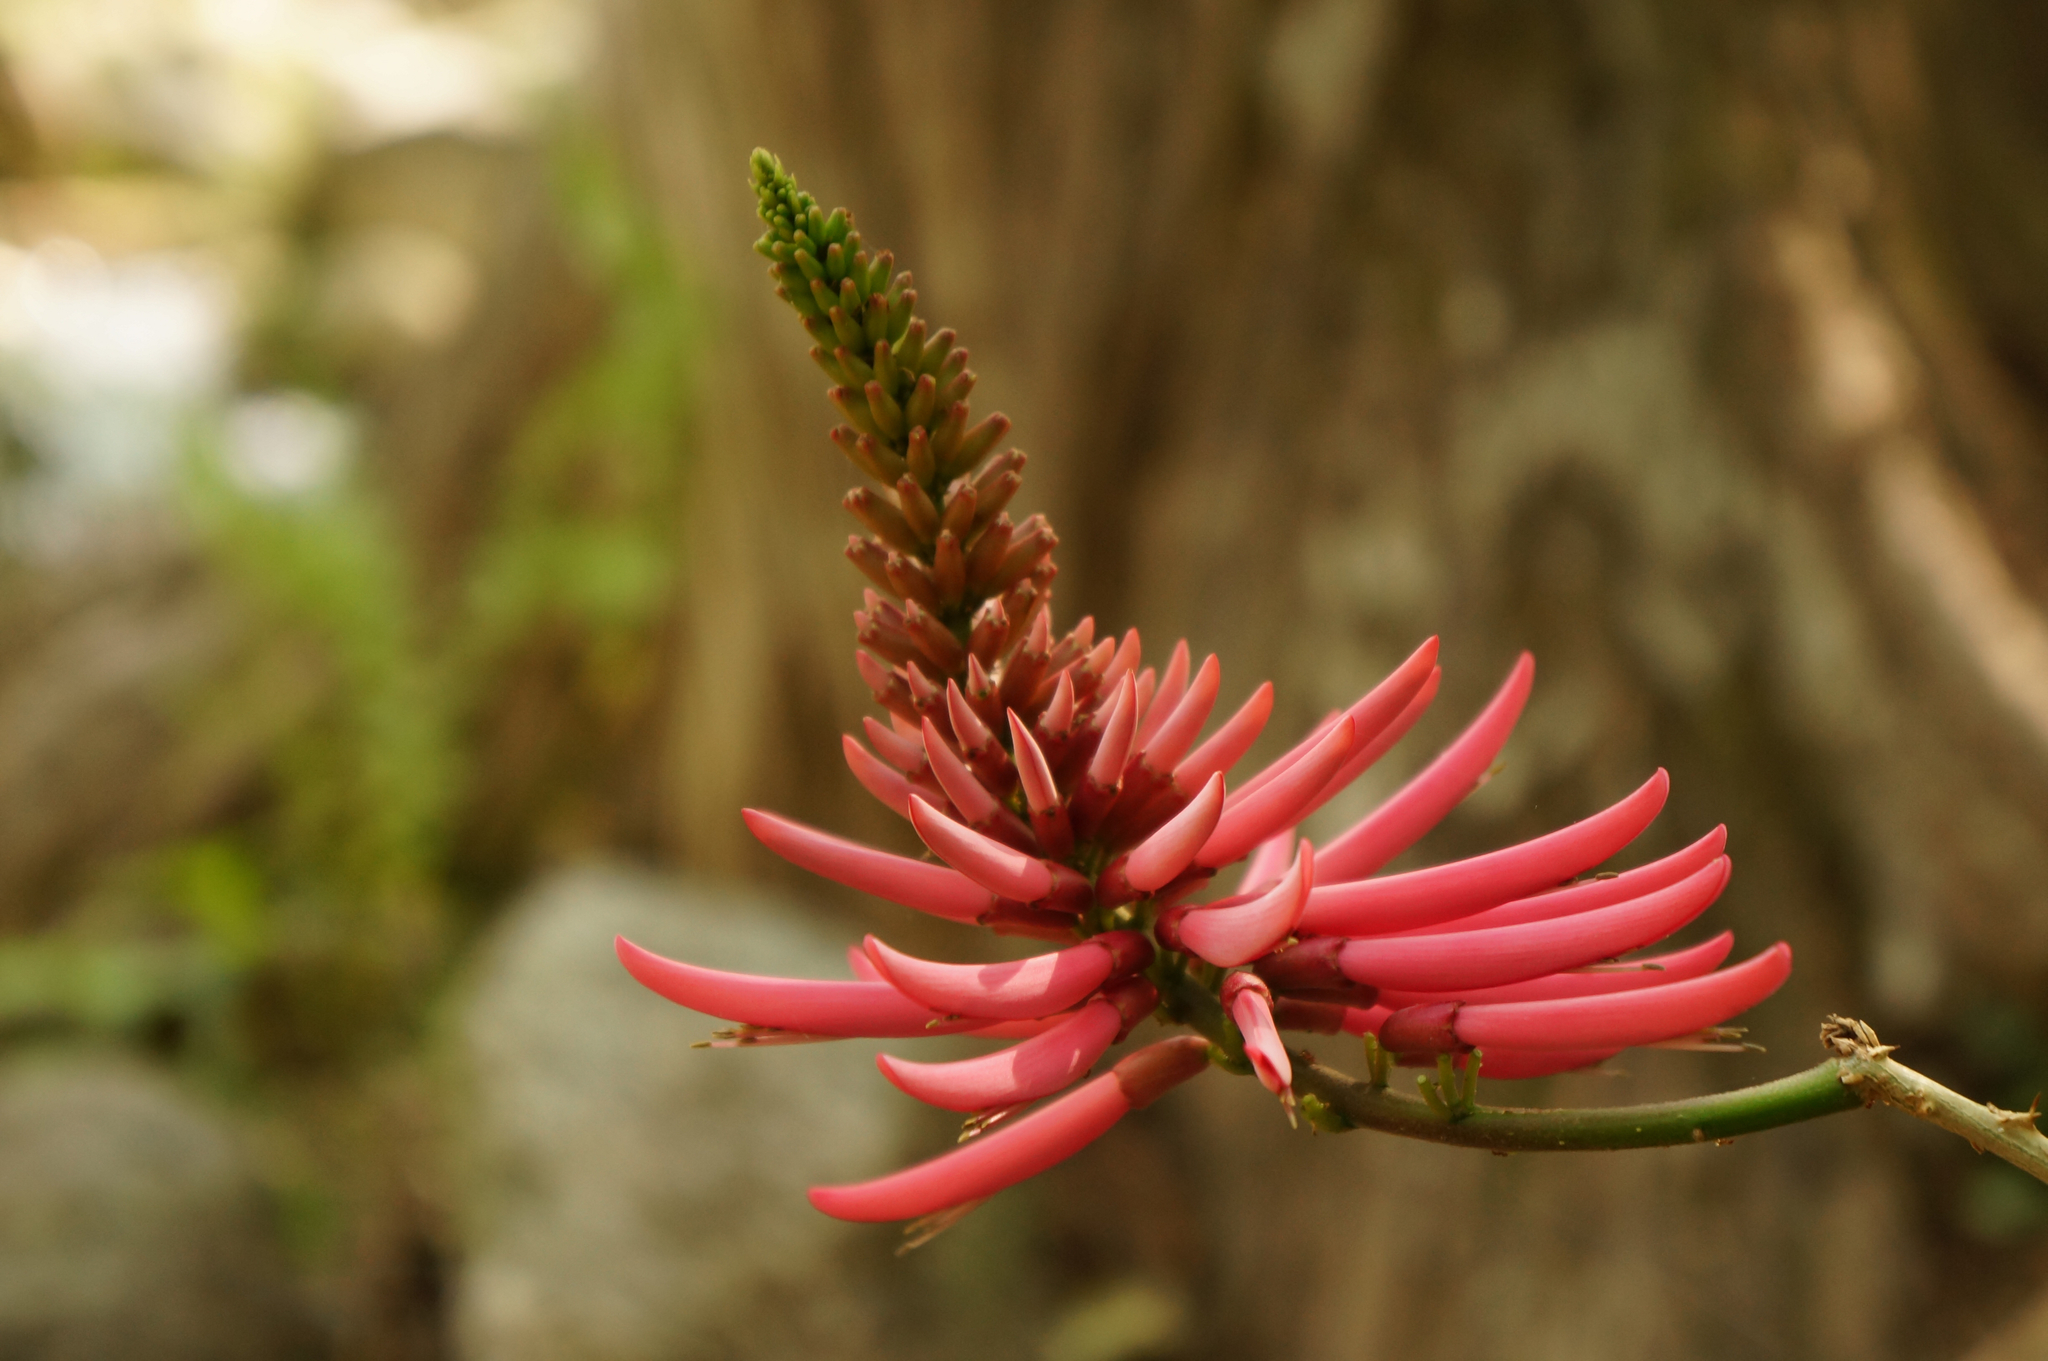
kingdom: Plantae
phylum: Tracheophyta
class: Magnoliopsida
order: Fabales
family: Fabaceae
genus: Erythrina
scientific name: Erythrina nigrorosea
